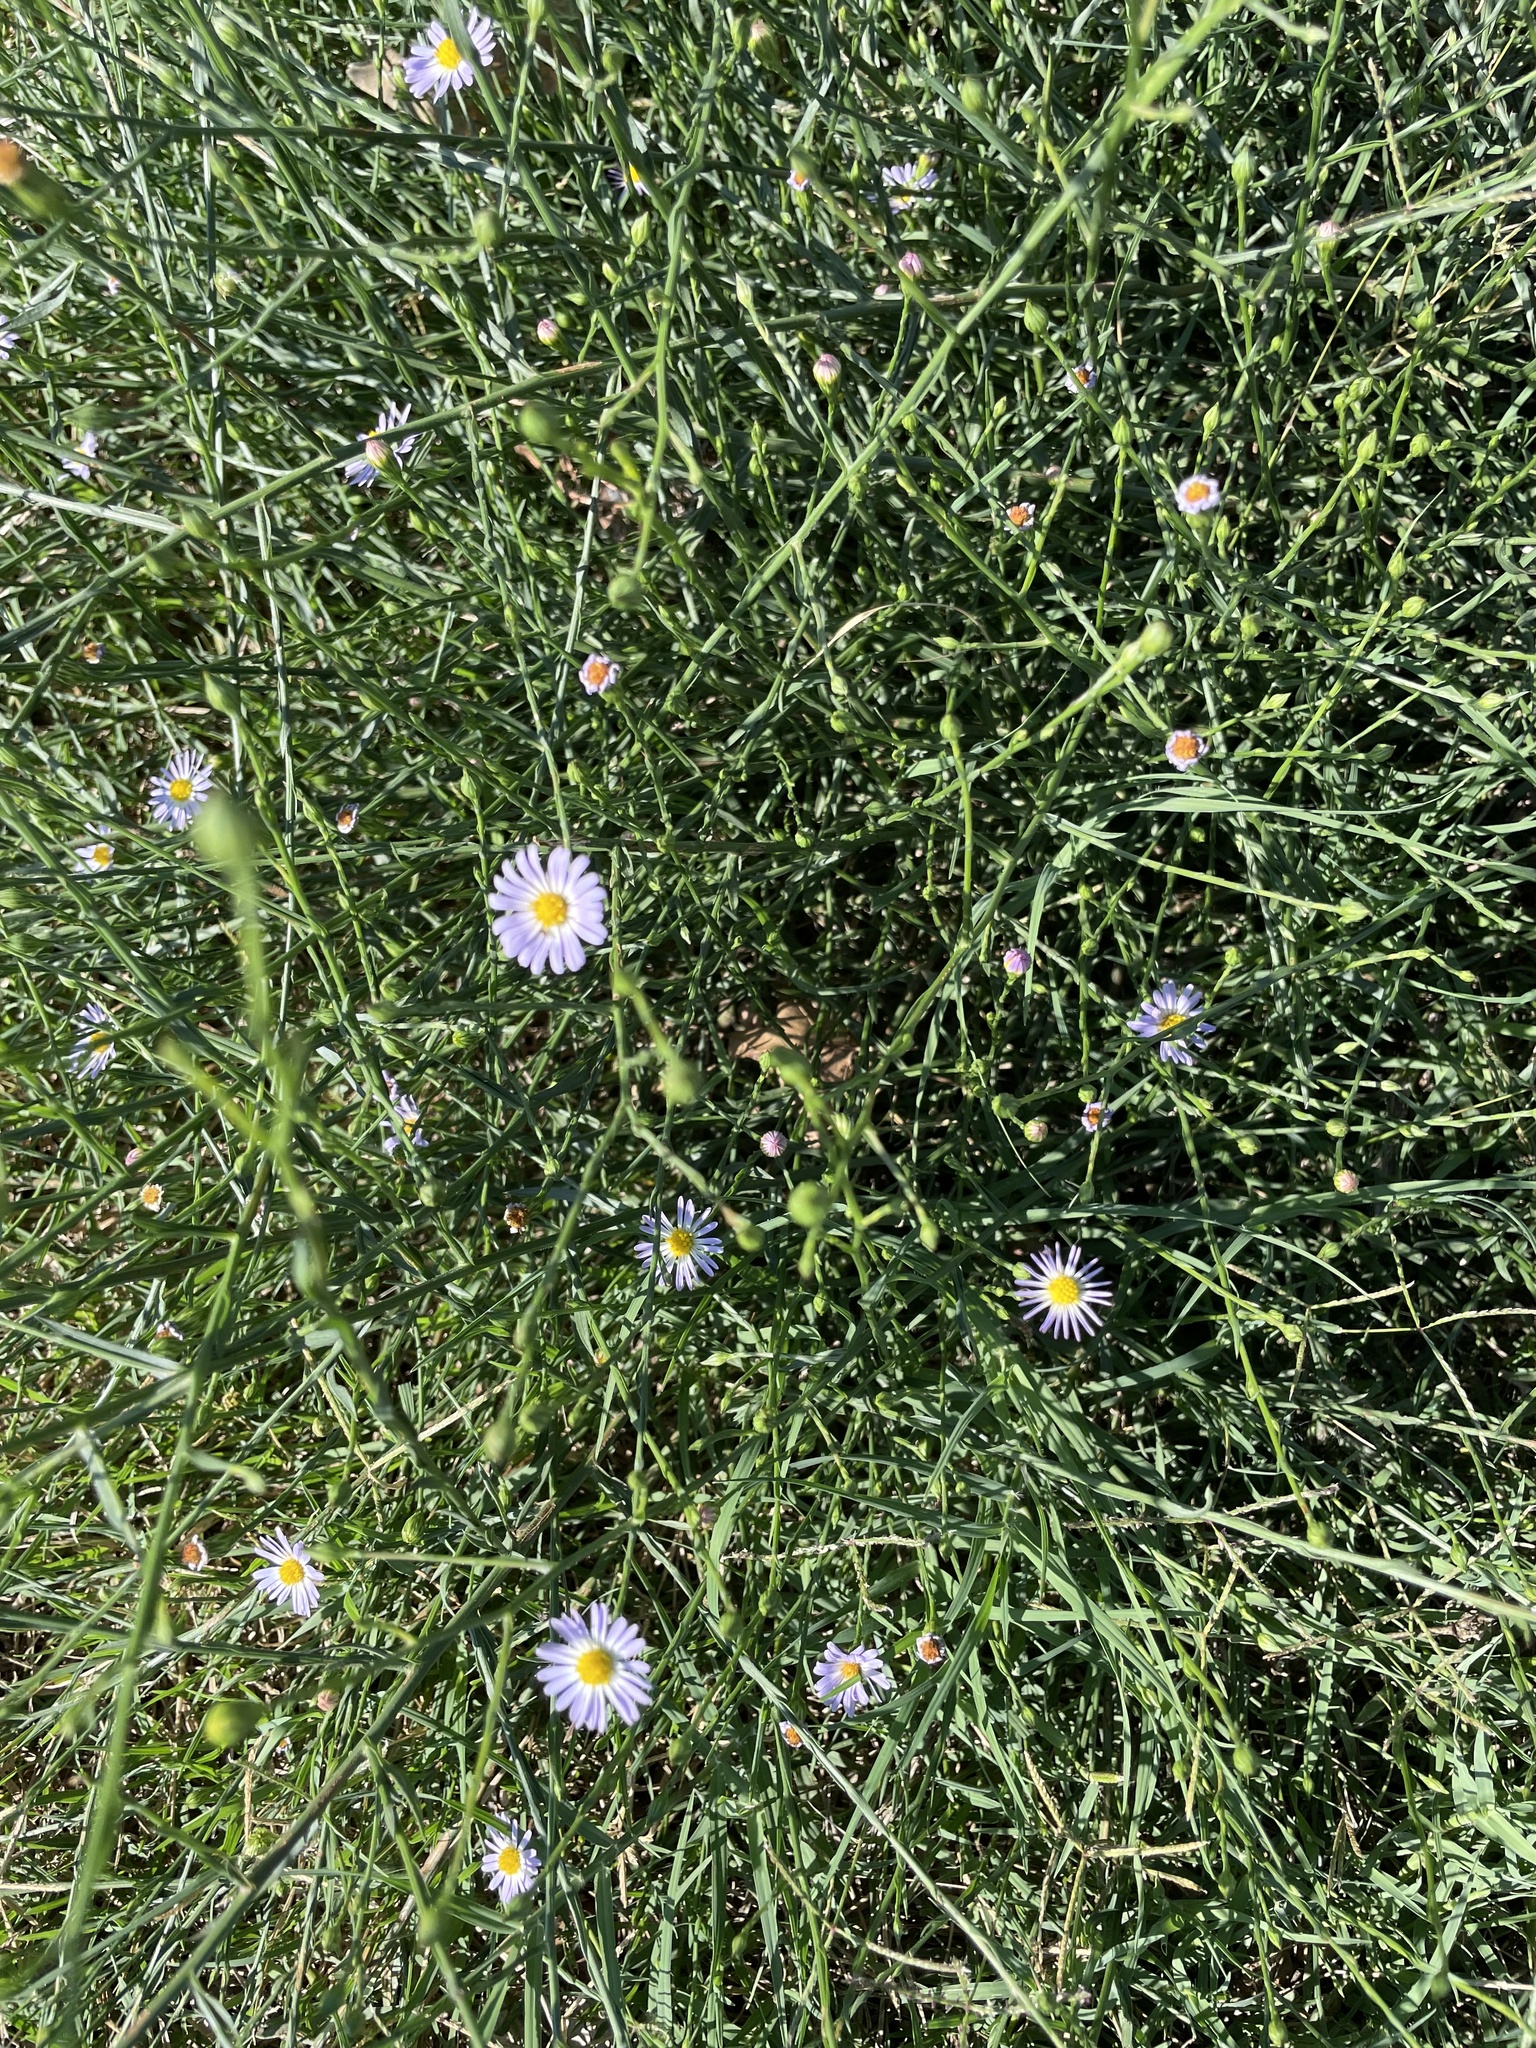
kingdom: Plantae
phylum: Tracheophyta
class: Magnoliopsida
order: Asterales
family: Asteraceae
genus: Symphyotrichum
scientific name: Symphyotrichum divaricatum
